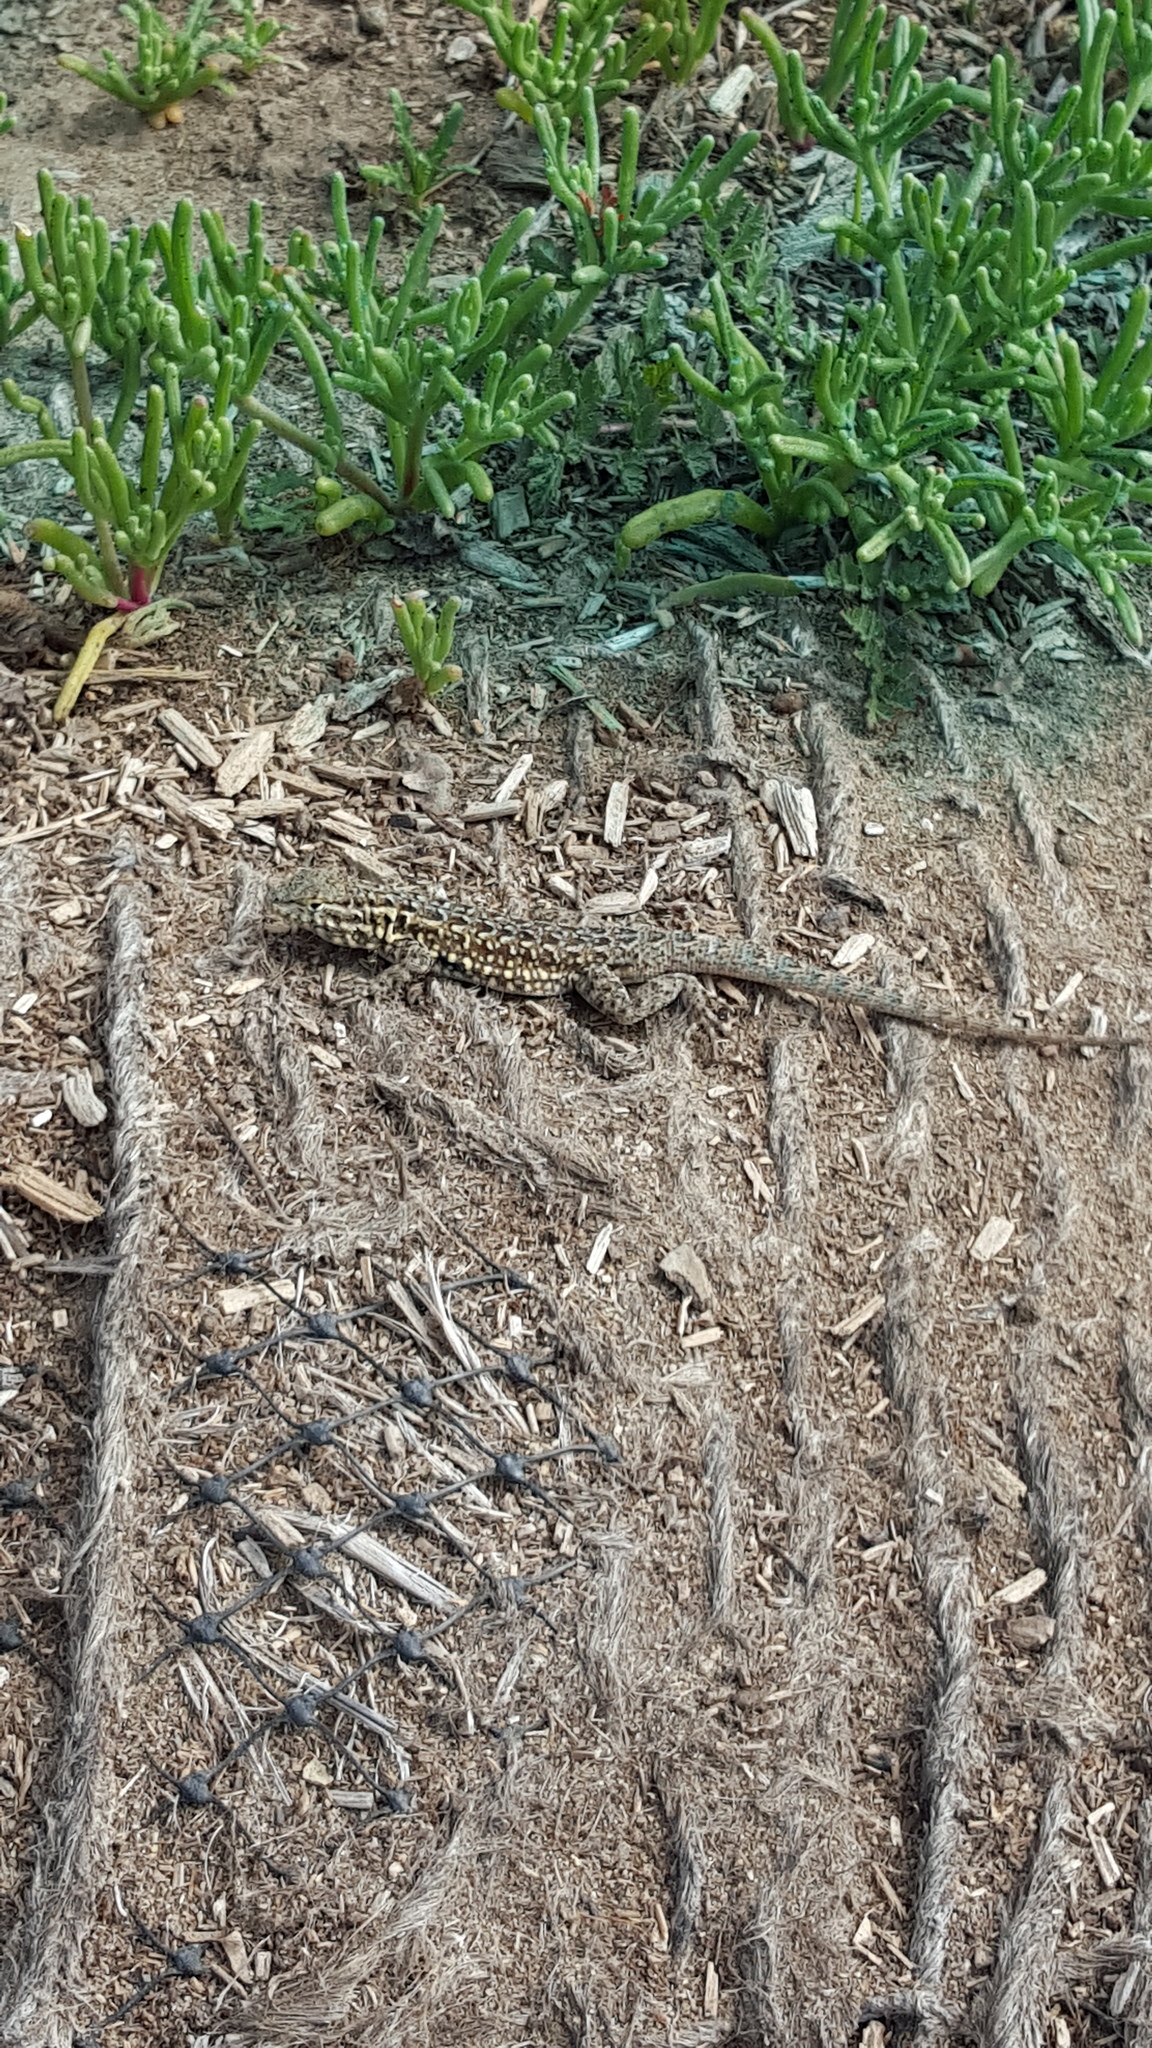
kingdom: Animalia
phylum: Chordata
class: Squamata
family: Phrynosomatidae
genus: Uta
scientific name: Uta stansburiana
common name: Side-blotched lizard
